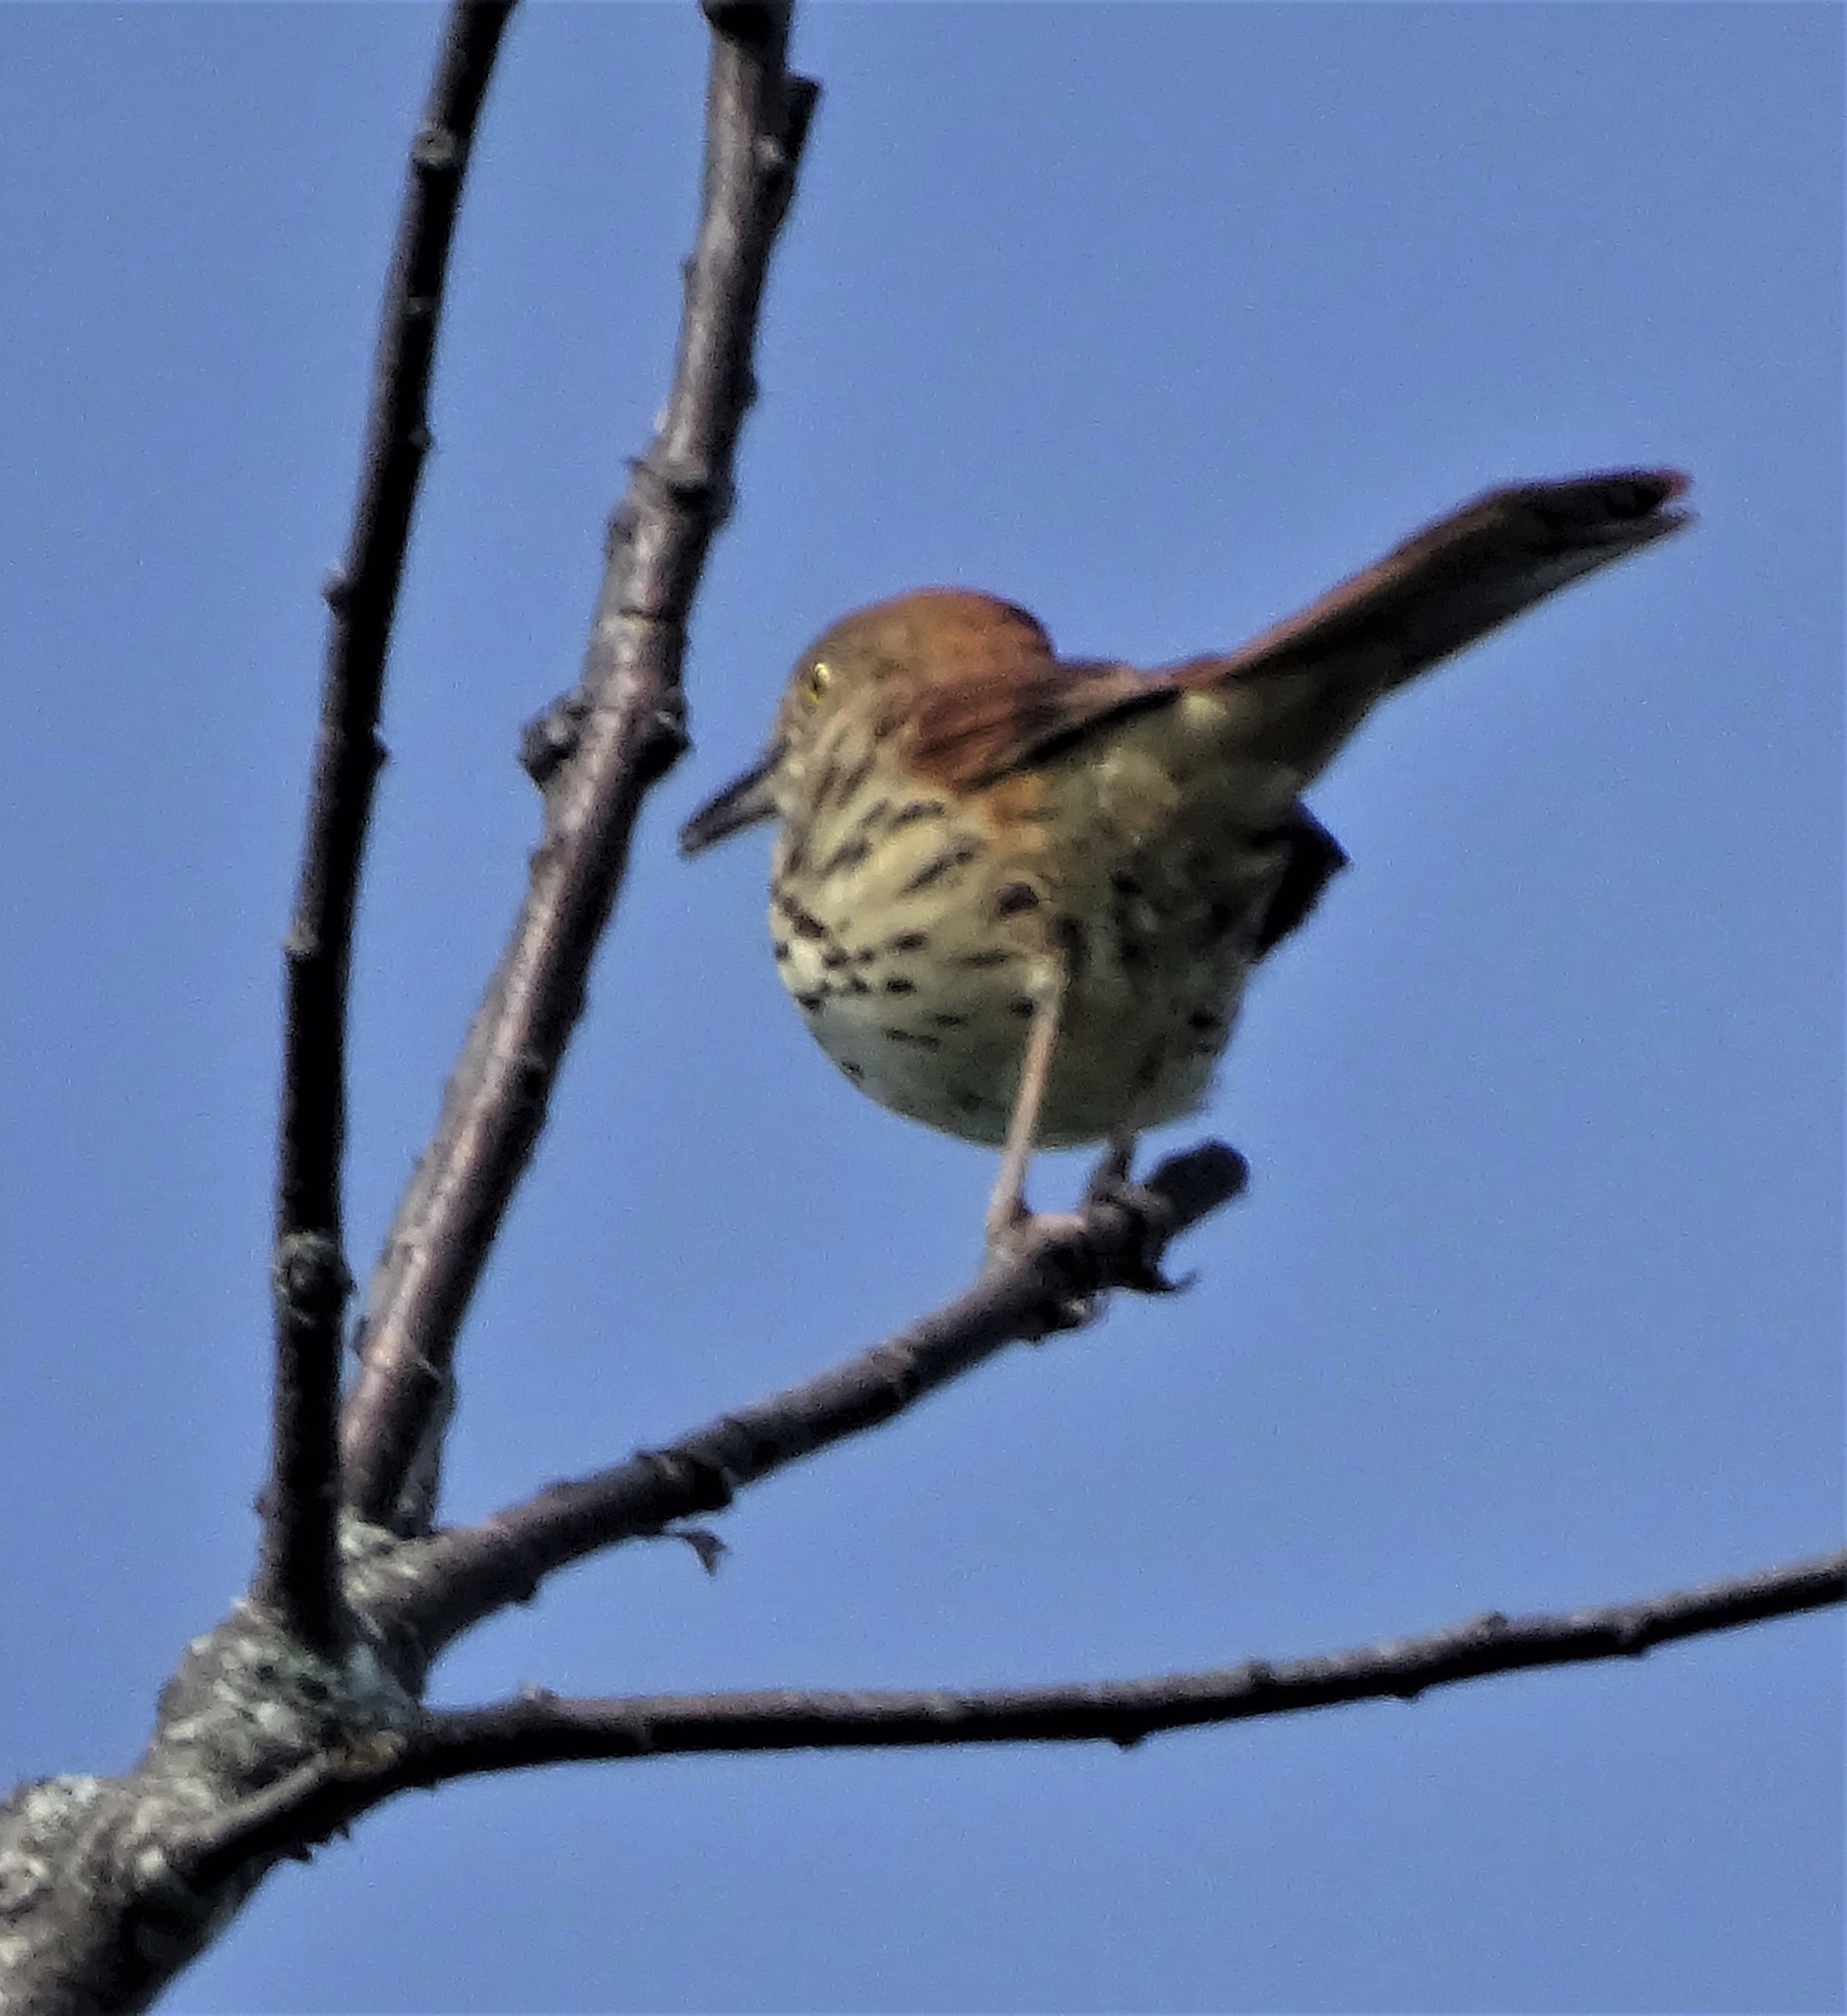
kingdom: Animalia
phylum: Chordata
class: Aves
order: Passeriformes
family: Mimidae
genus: Toxostoma
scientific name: Toxostoma rufum
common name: Brown thrasher
